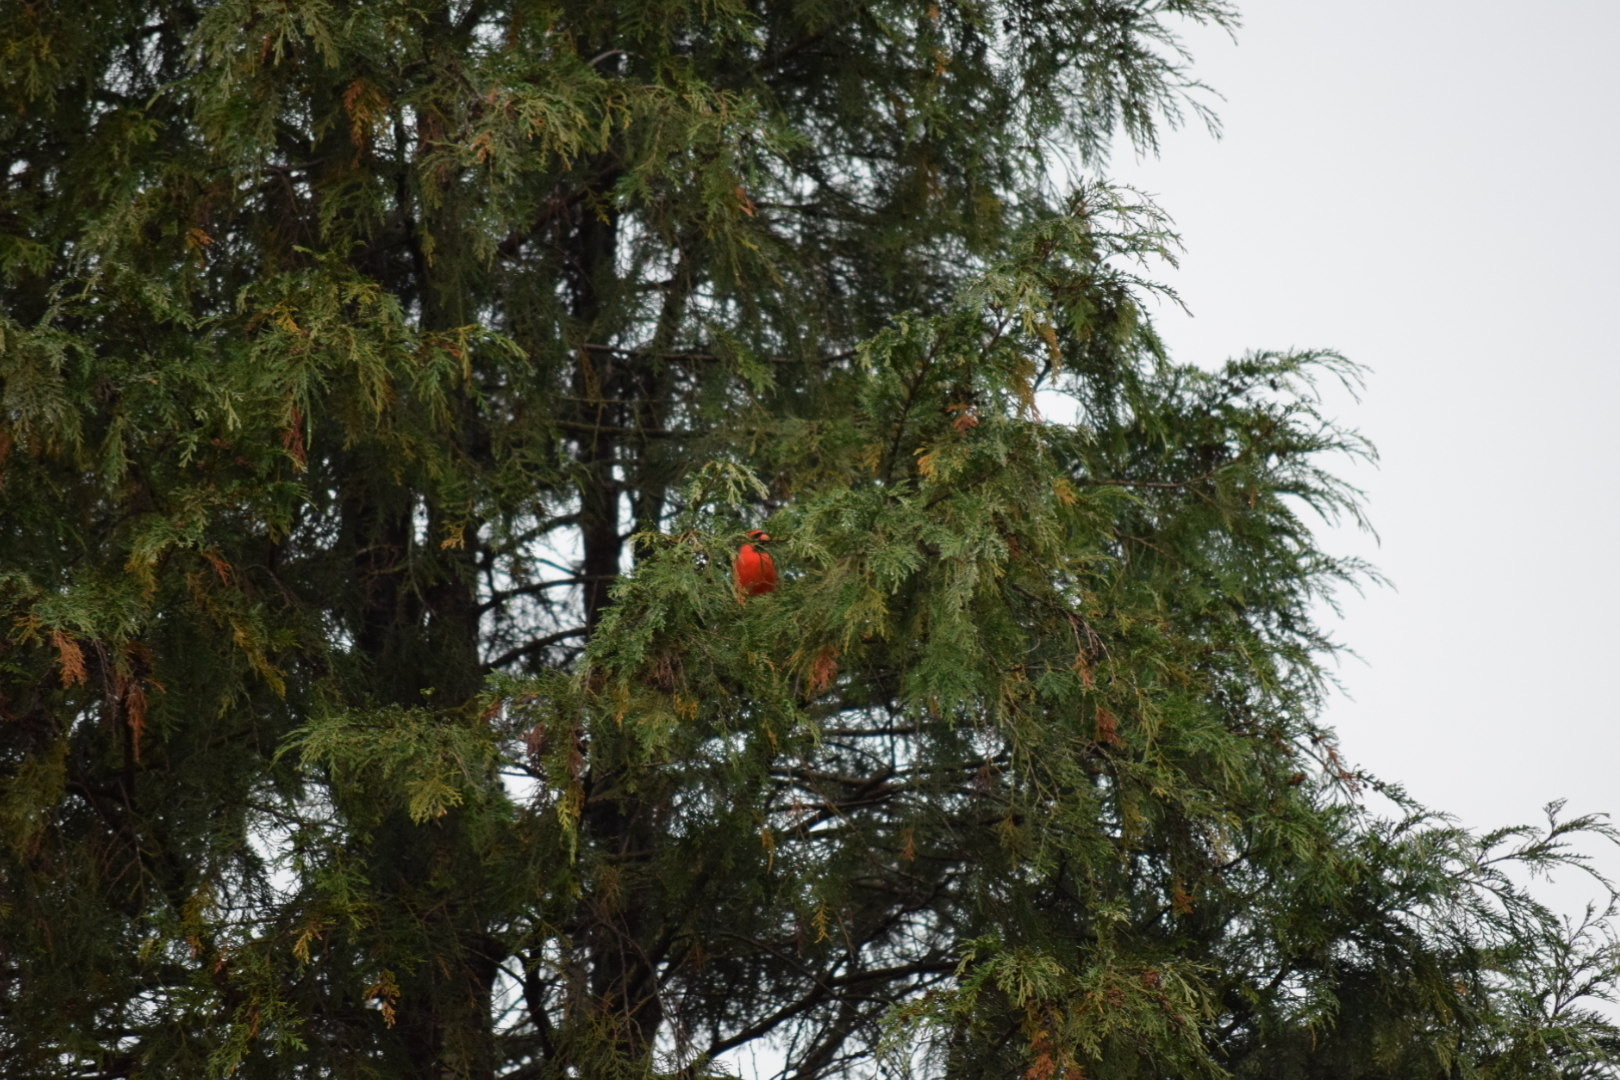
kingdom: Animalia
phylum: Chordata
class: Aves
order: Passeriformes
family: Cardinalidae
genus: Cardinalis
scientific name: Cardinalis cardinalis
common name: Northern cardinal
